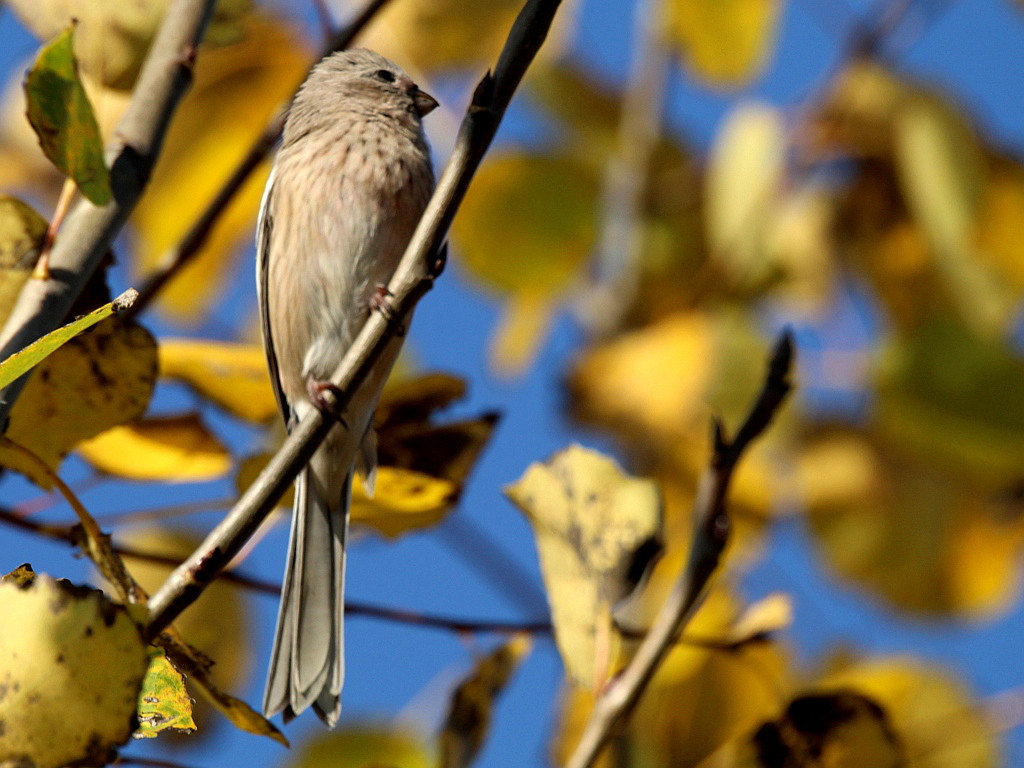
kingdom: Animalia
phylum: Chordata
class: Aves
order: Passeriformes
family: Fringillidae
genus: Carpodacus
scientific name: Carpodacus sibiricus
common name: Long-tailed rosefinch
